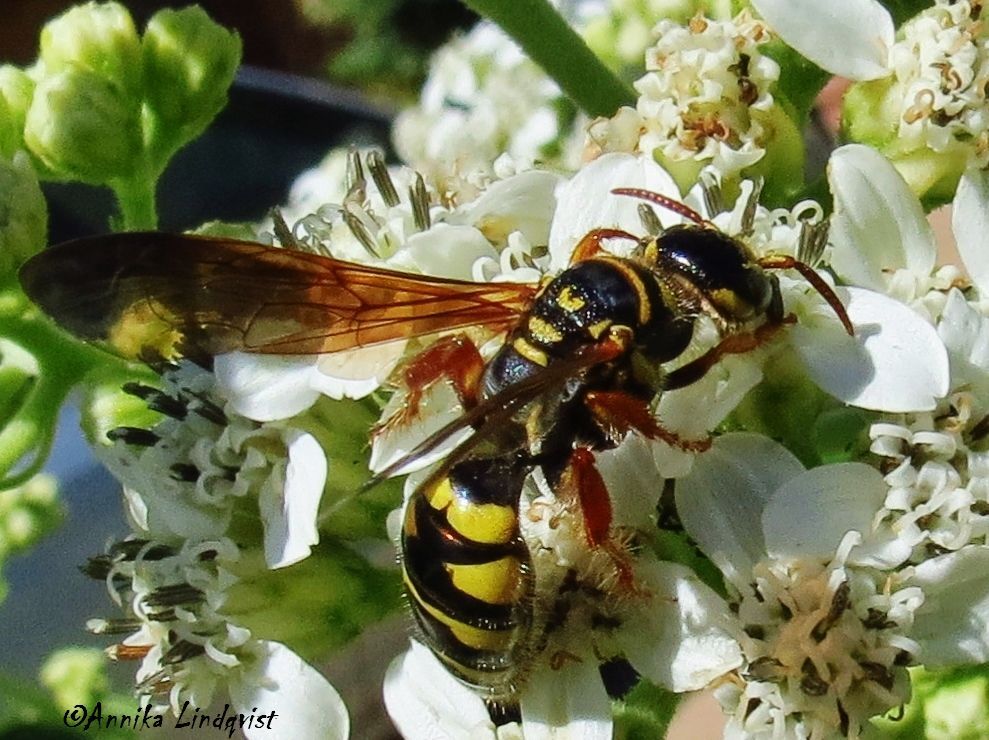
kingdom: Animalia
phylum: Arthropoda
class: Insecta
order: Hymenoptera
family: Tiphiidae
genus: Myzinum
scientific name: Myzinum quinquecinctum
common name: Five-banded thynnid wasp
